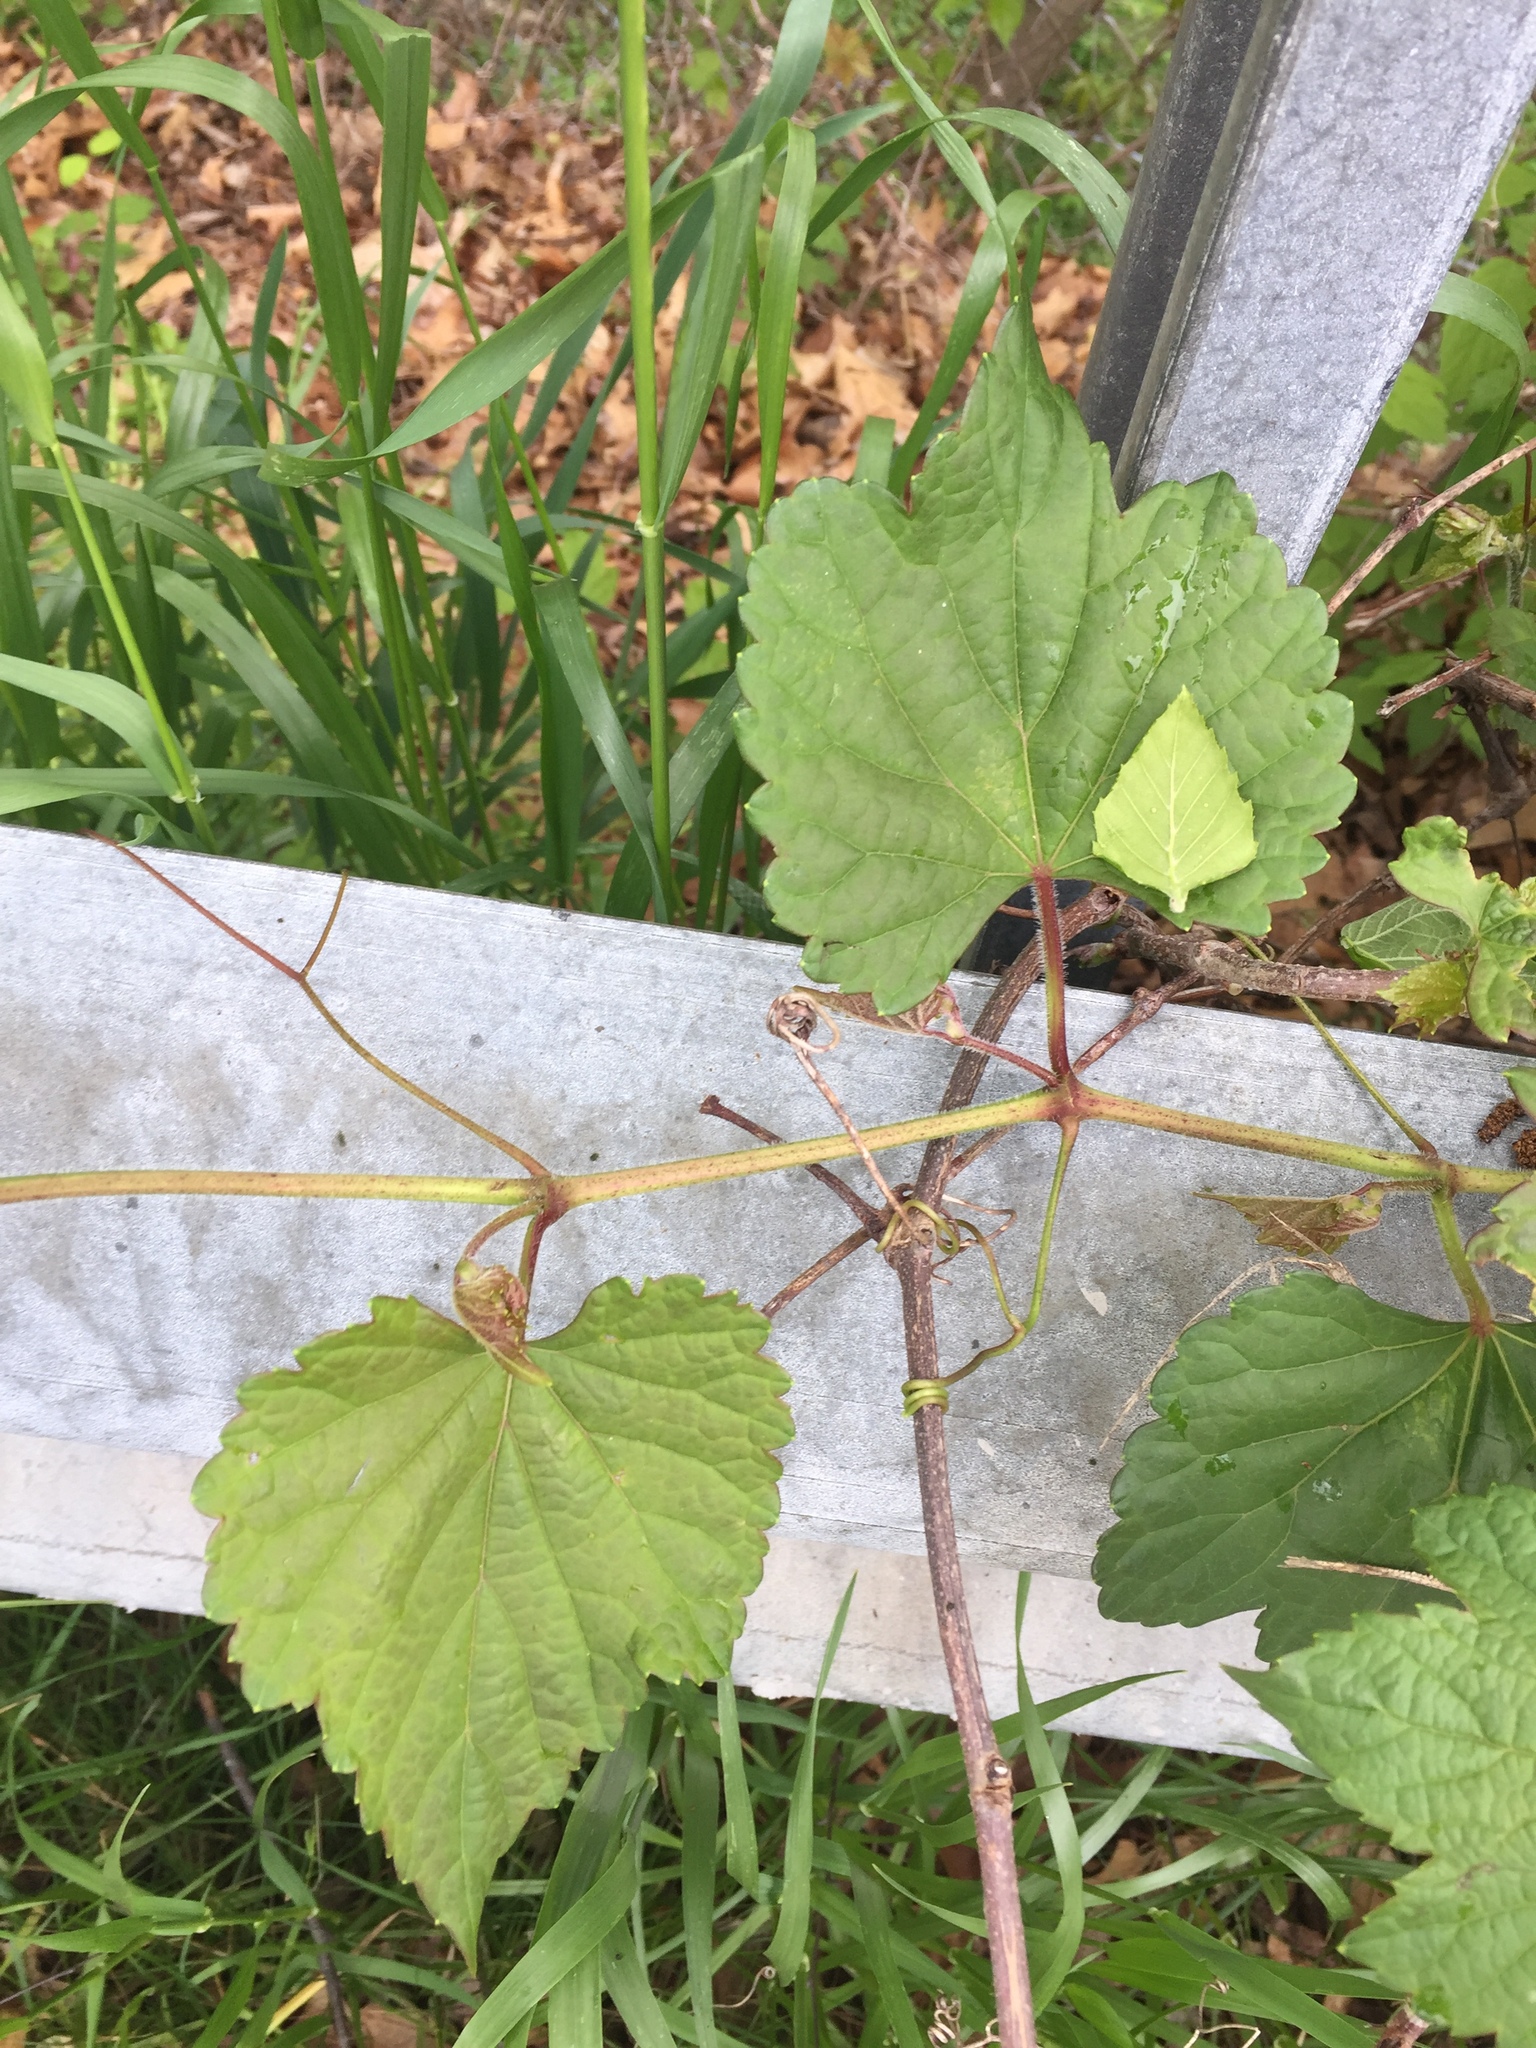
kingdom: Plantae
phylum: Tracheophyta
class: Magnoliopsida
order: Vitales
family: Vitaceae
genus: Vitis
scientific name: Vitis riparia
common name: Frost grape
